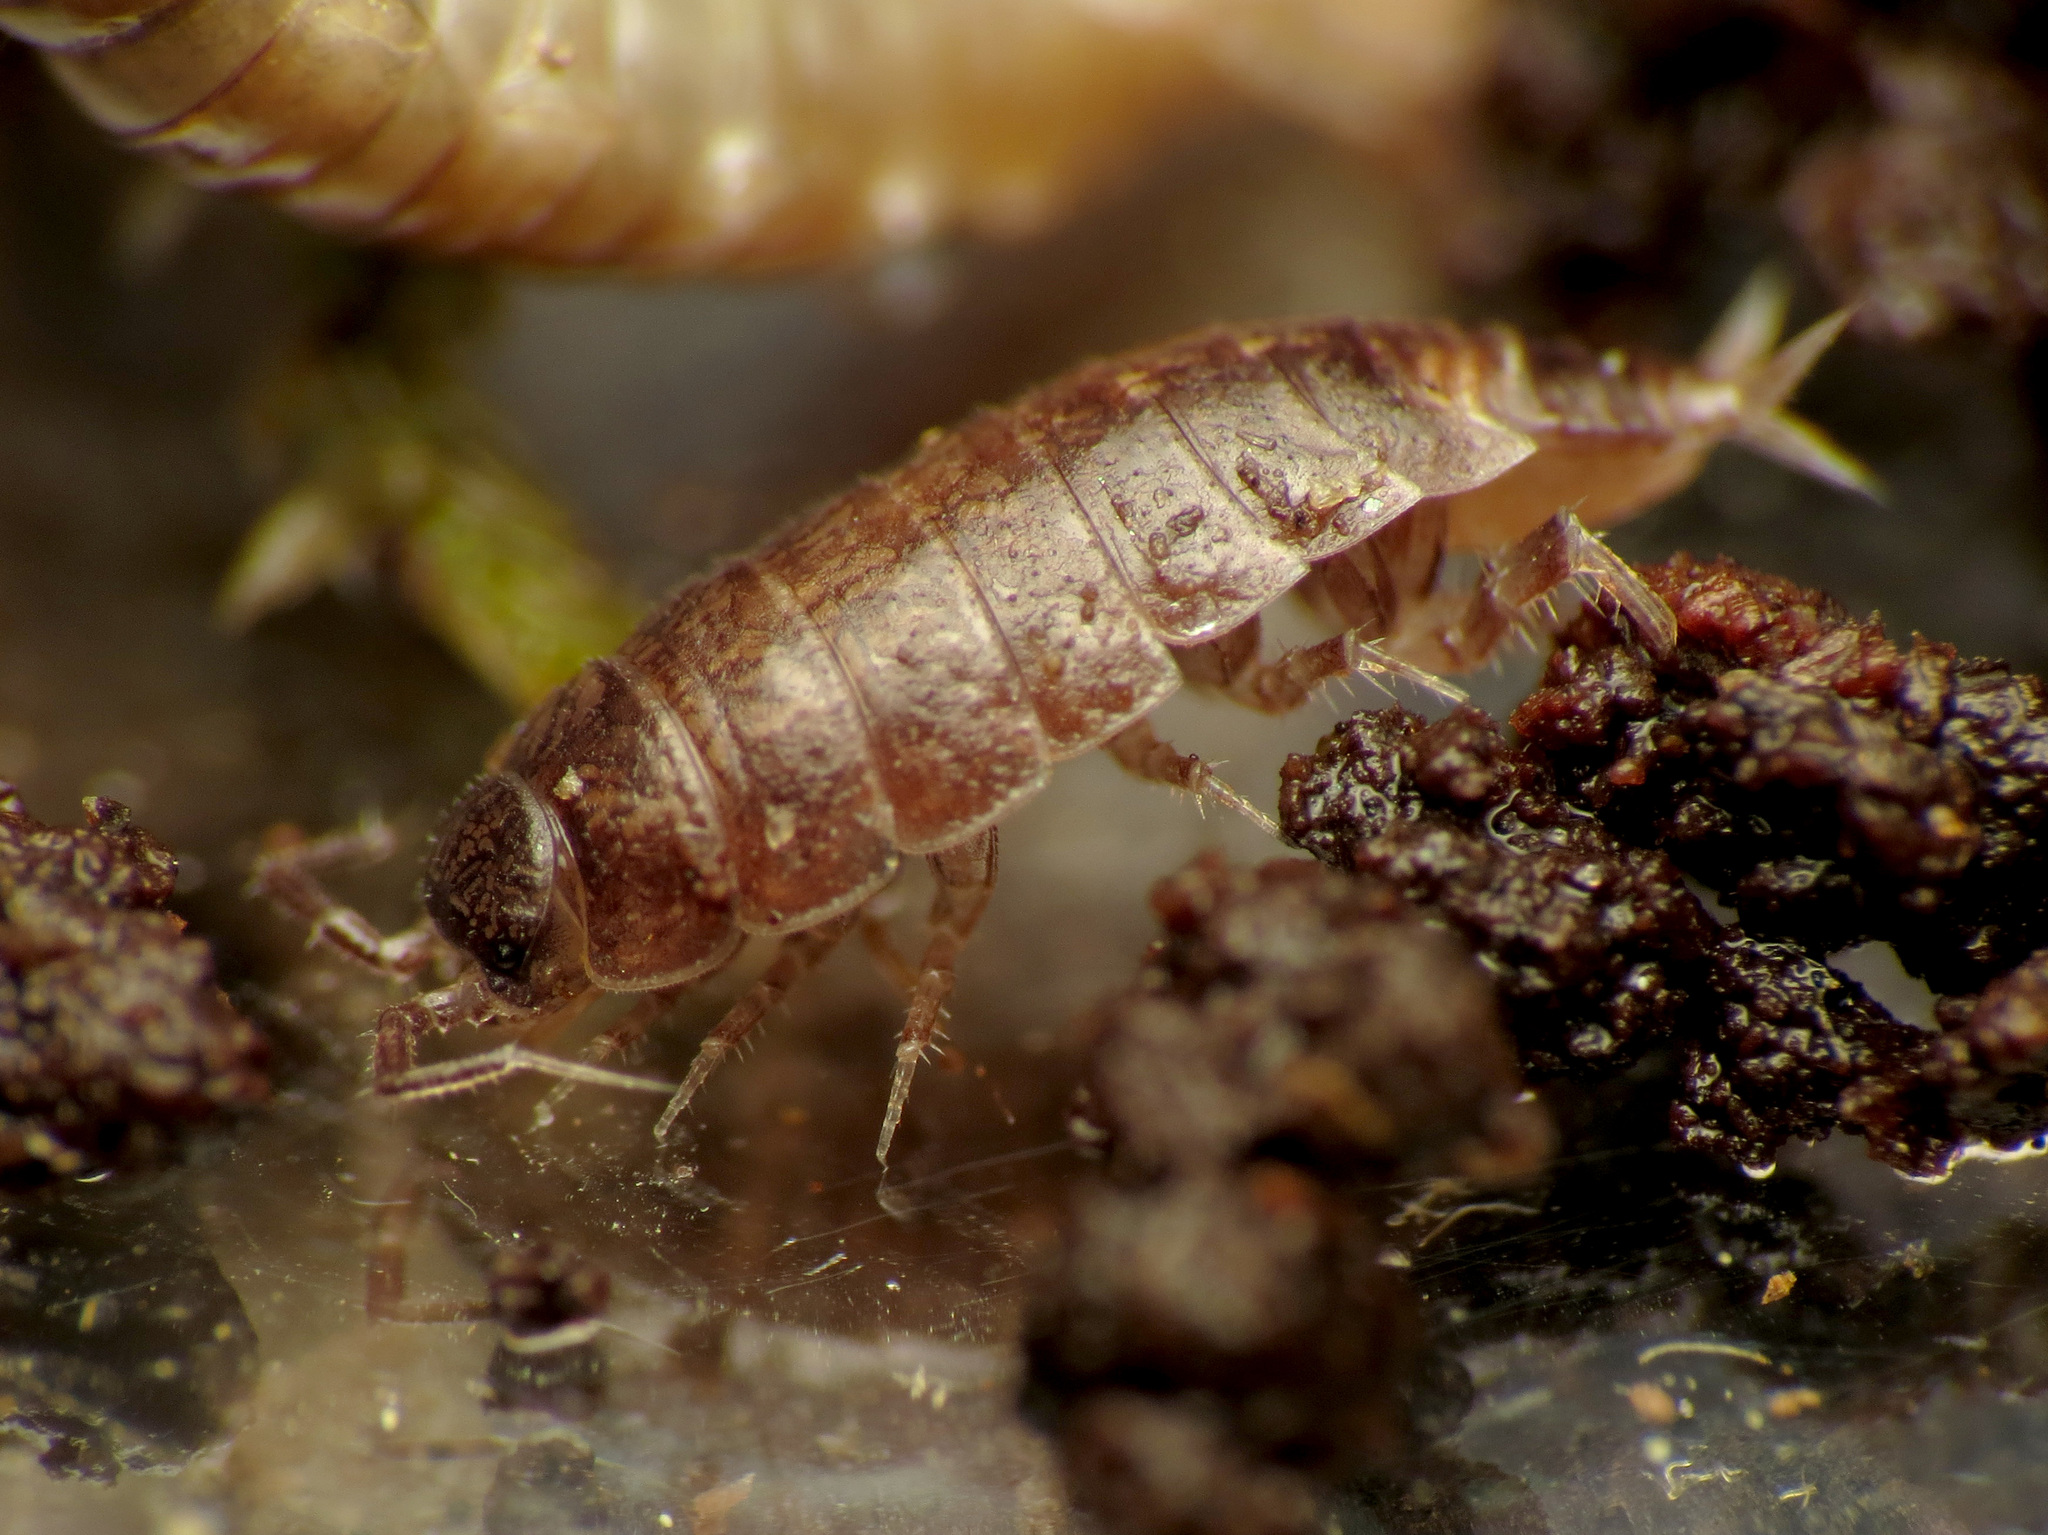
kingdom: Animalia
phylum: Arthropoda
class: Malacostraca
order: Isopoda
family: Trichoniscidae
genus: Hyloniscus
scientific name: Hyloniscus riparius
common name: Isopod
